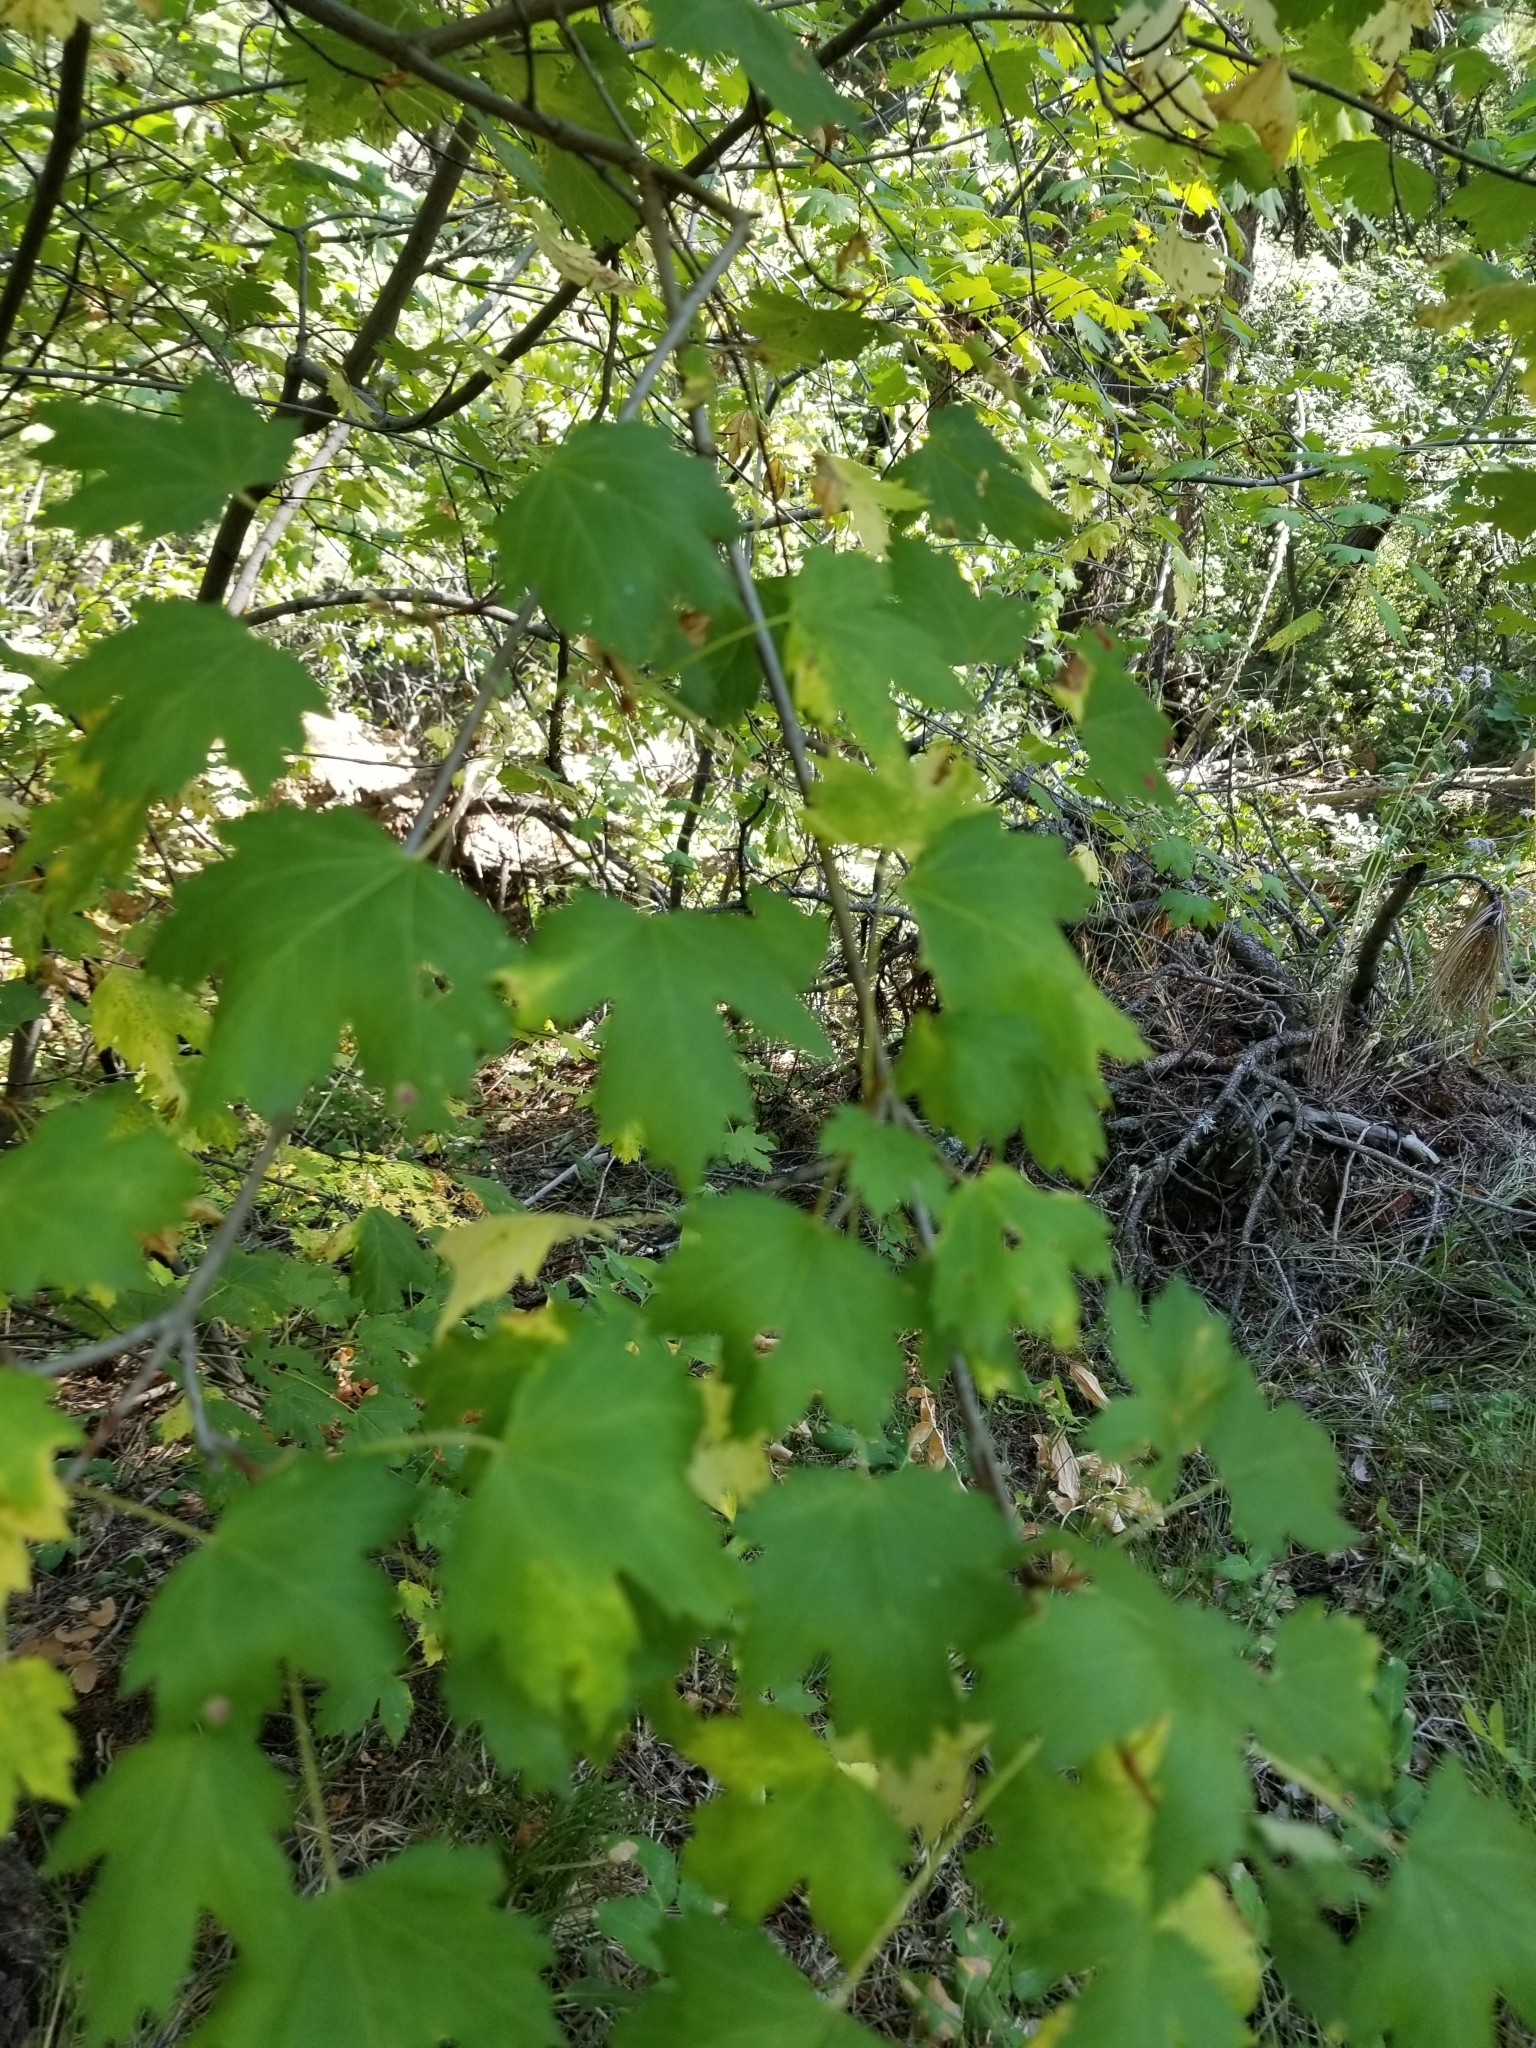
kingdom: Plantae
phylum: Tracheophyta
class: Magnoliopsida
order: Sapindales
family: Sapindaceae
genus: Acer
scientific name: Acer glabrum
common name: Rocky mountain maple
